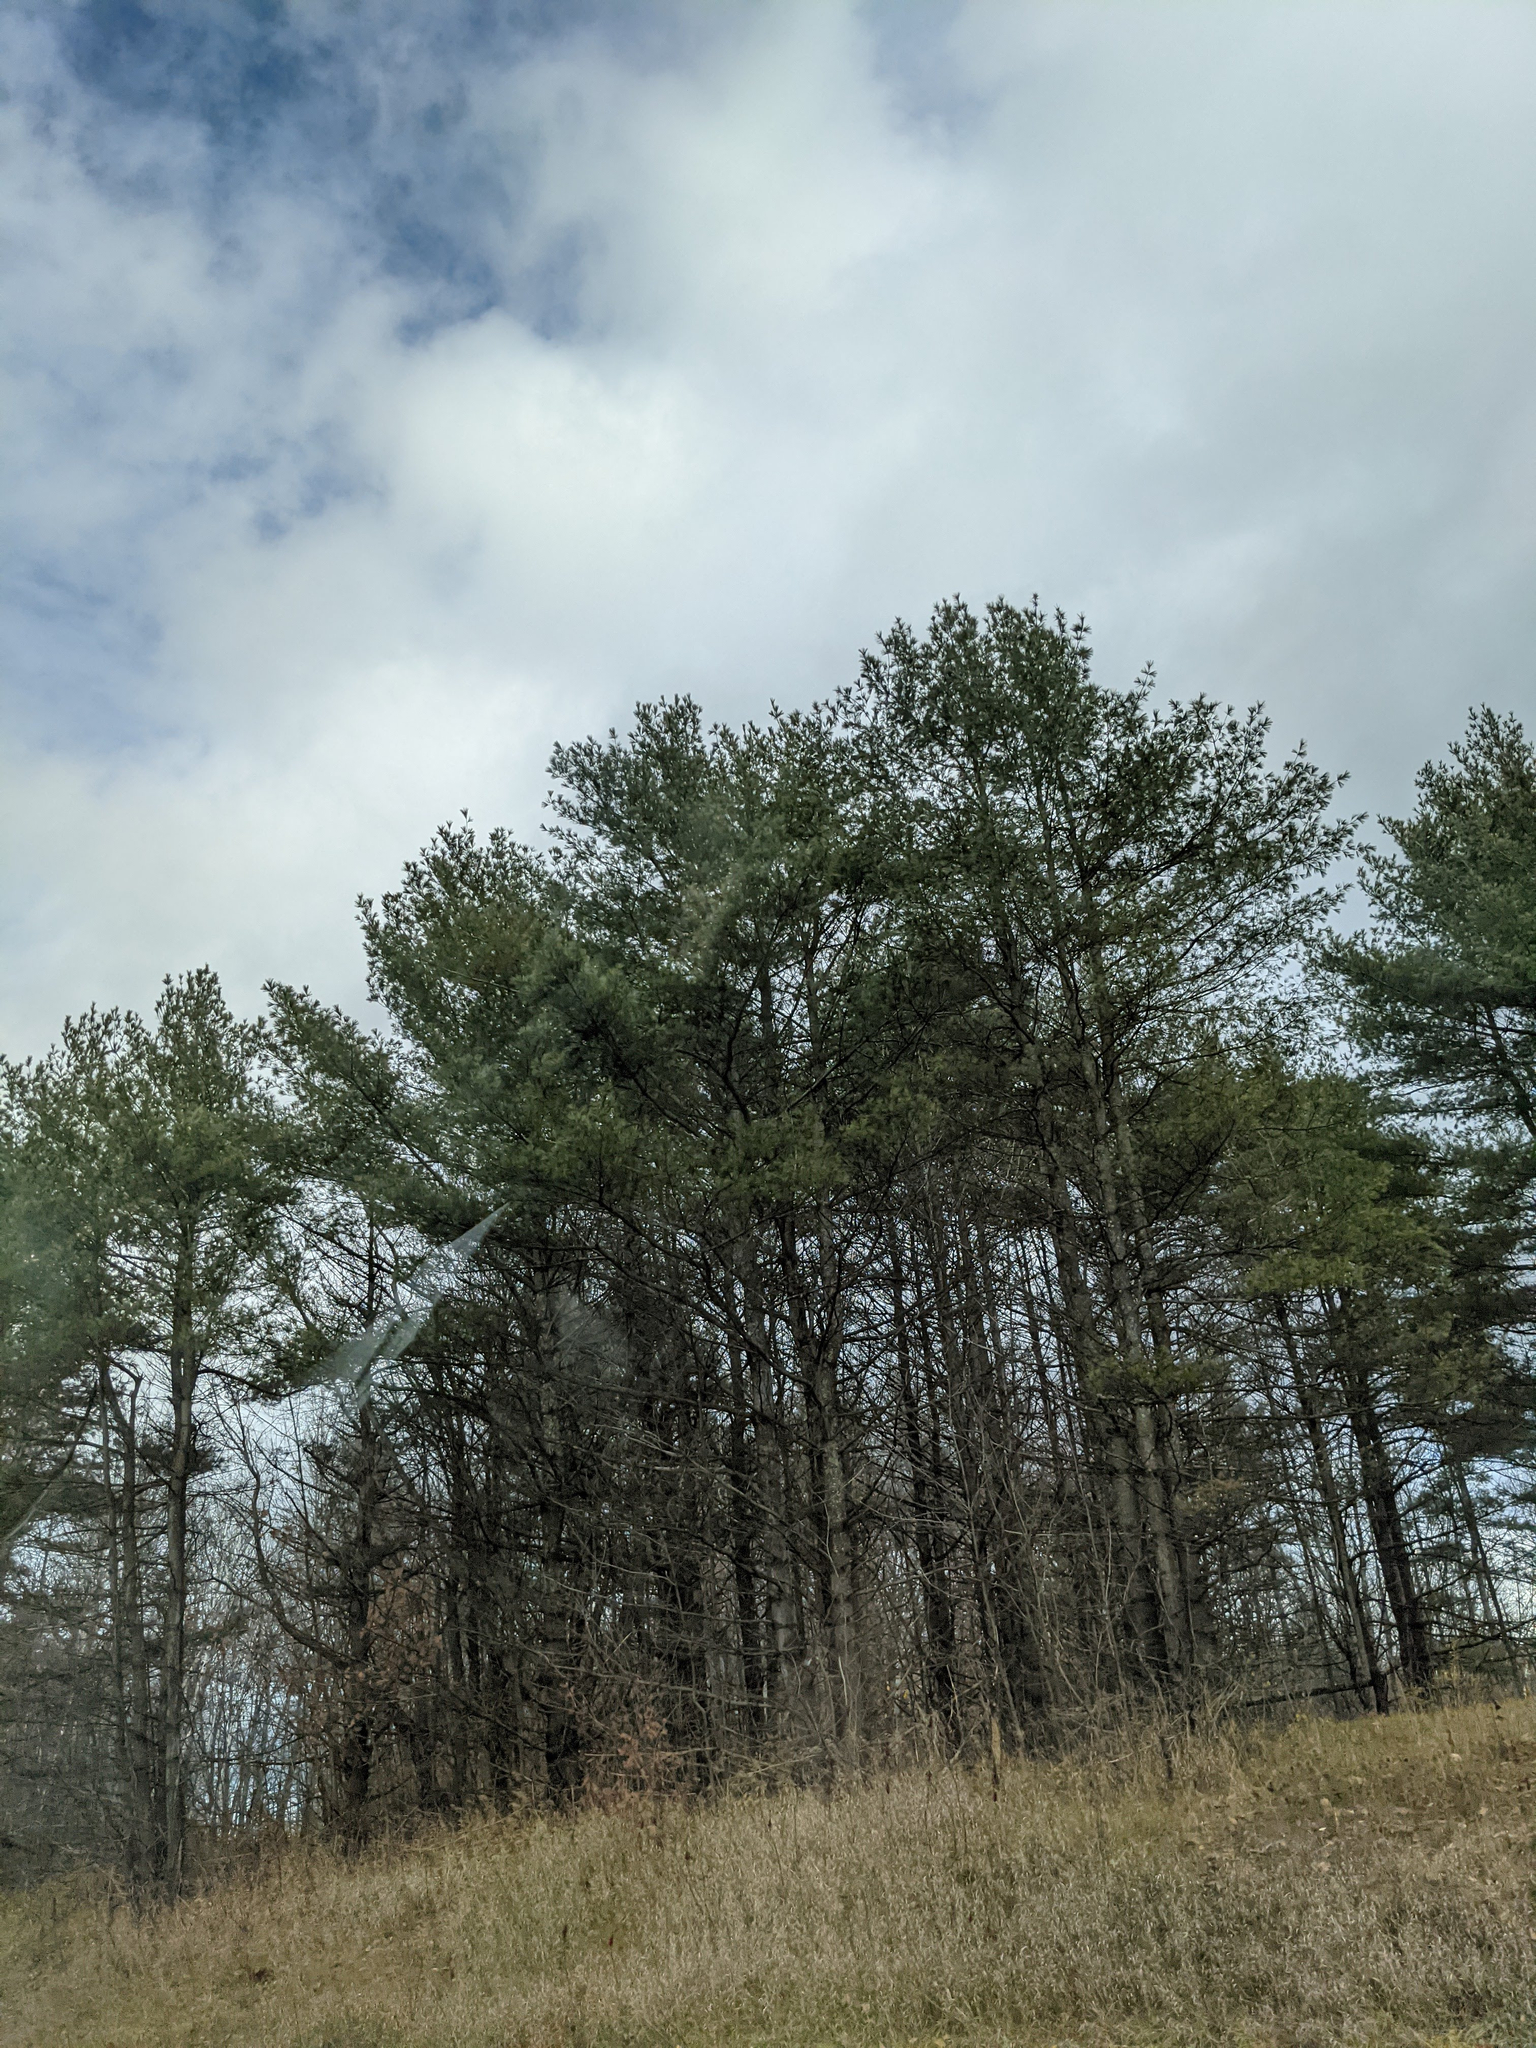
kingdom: Plantae
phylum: Tracheophyta
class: Pinopsida
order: Pinales
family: Pinaceae
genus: Pinus
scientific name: Pinus strobus
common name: Weymouth pine
